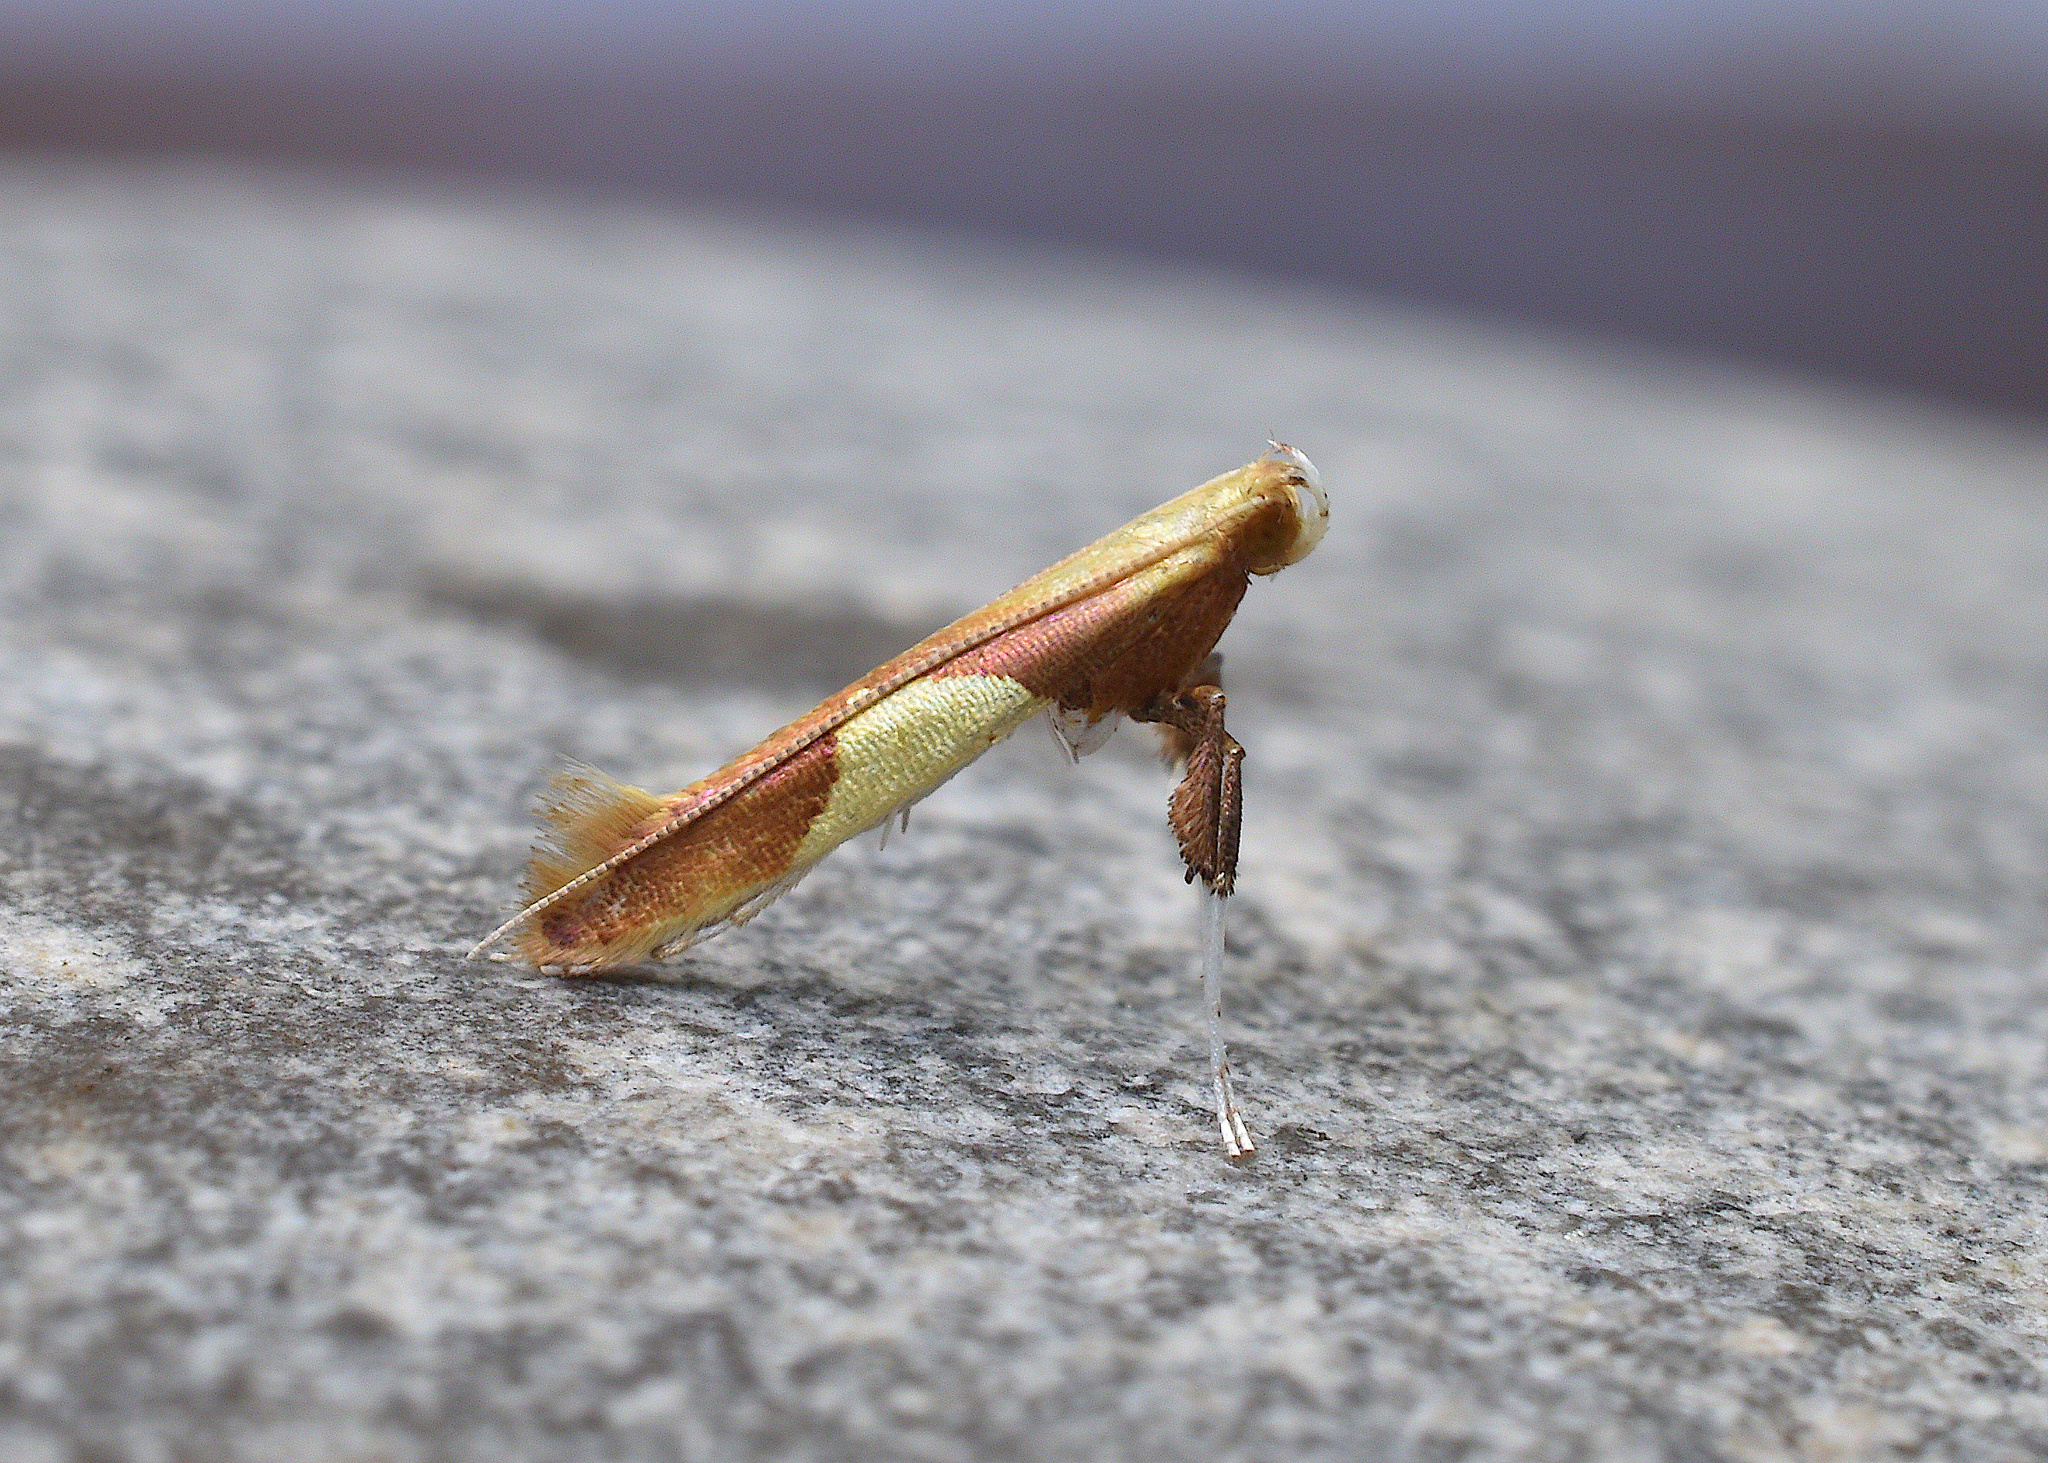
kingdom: Animalia
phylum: Arthropoda
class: Insecta
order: Lepidoptera
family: Gracillariidae
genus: Caloptilia
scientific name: Caloptilia packardella
